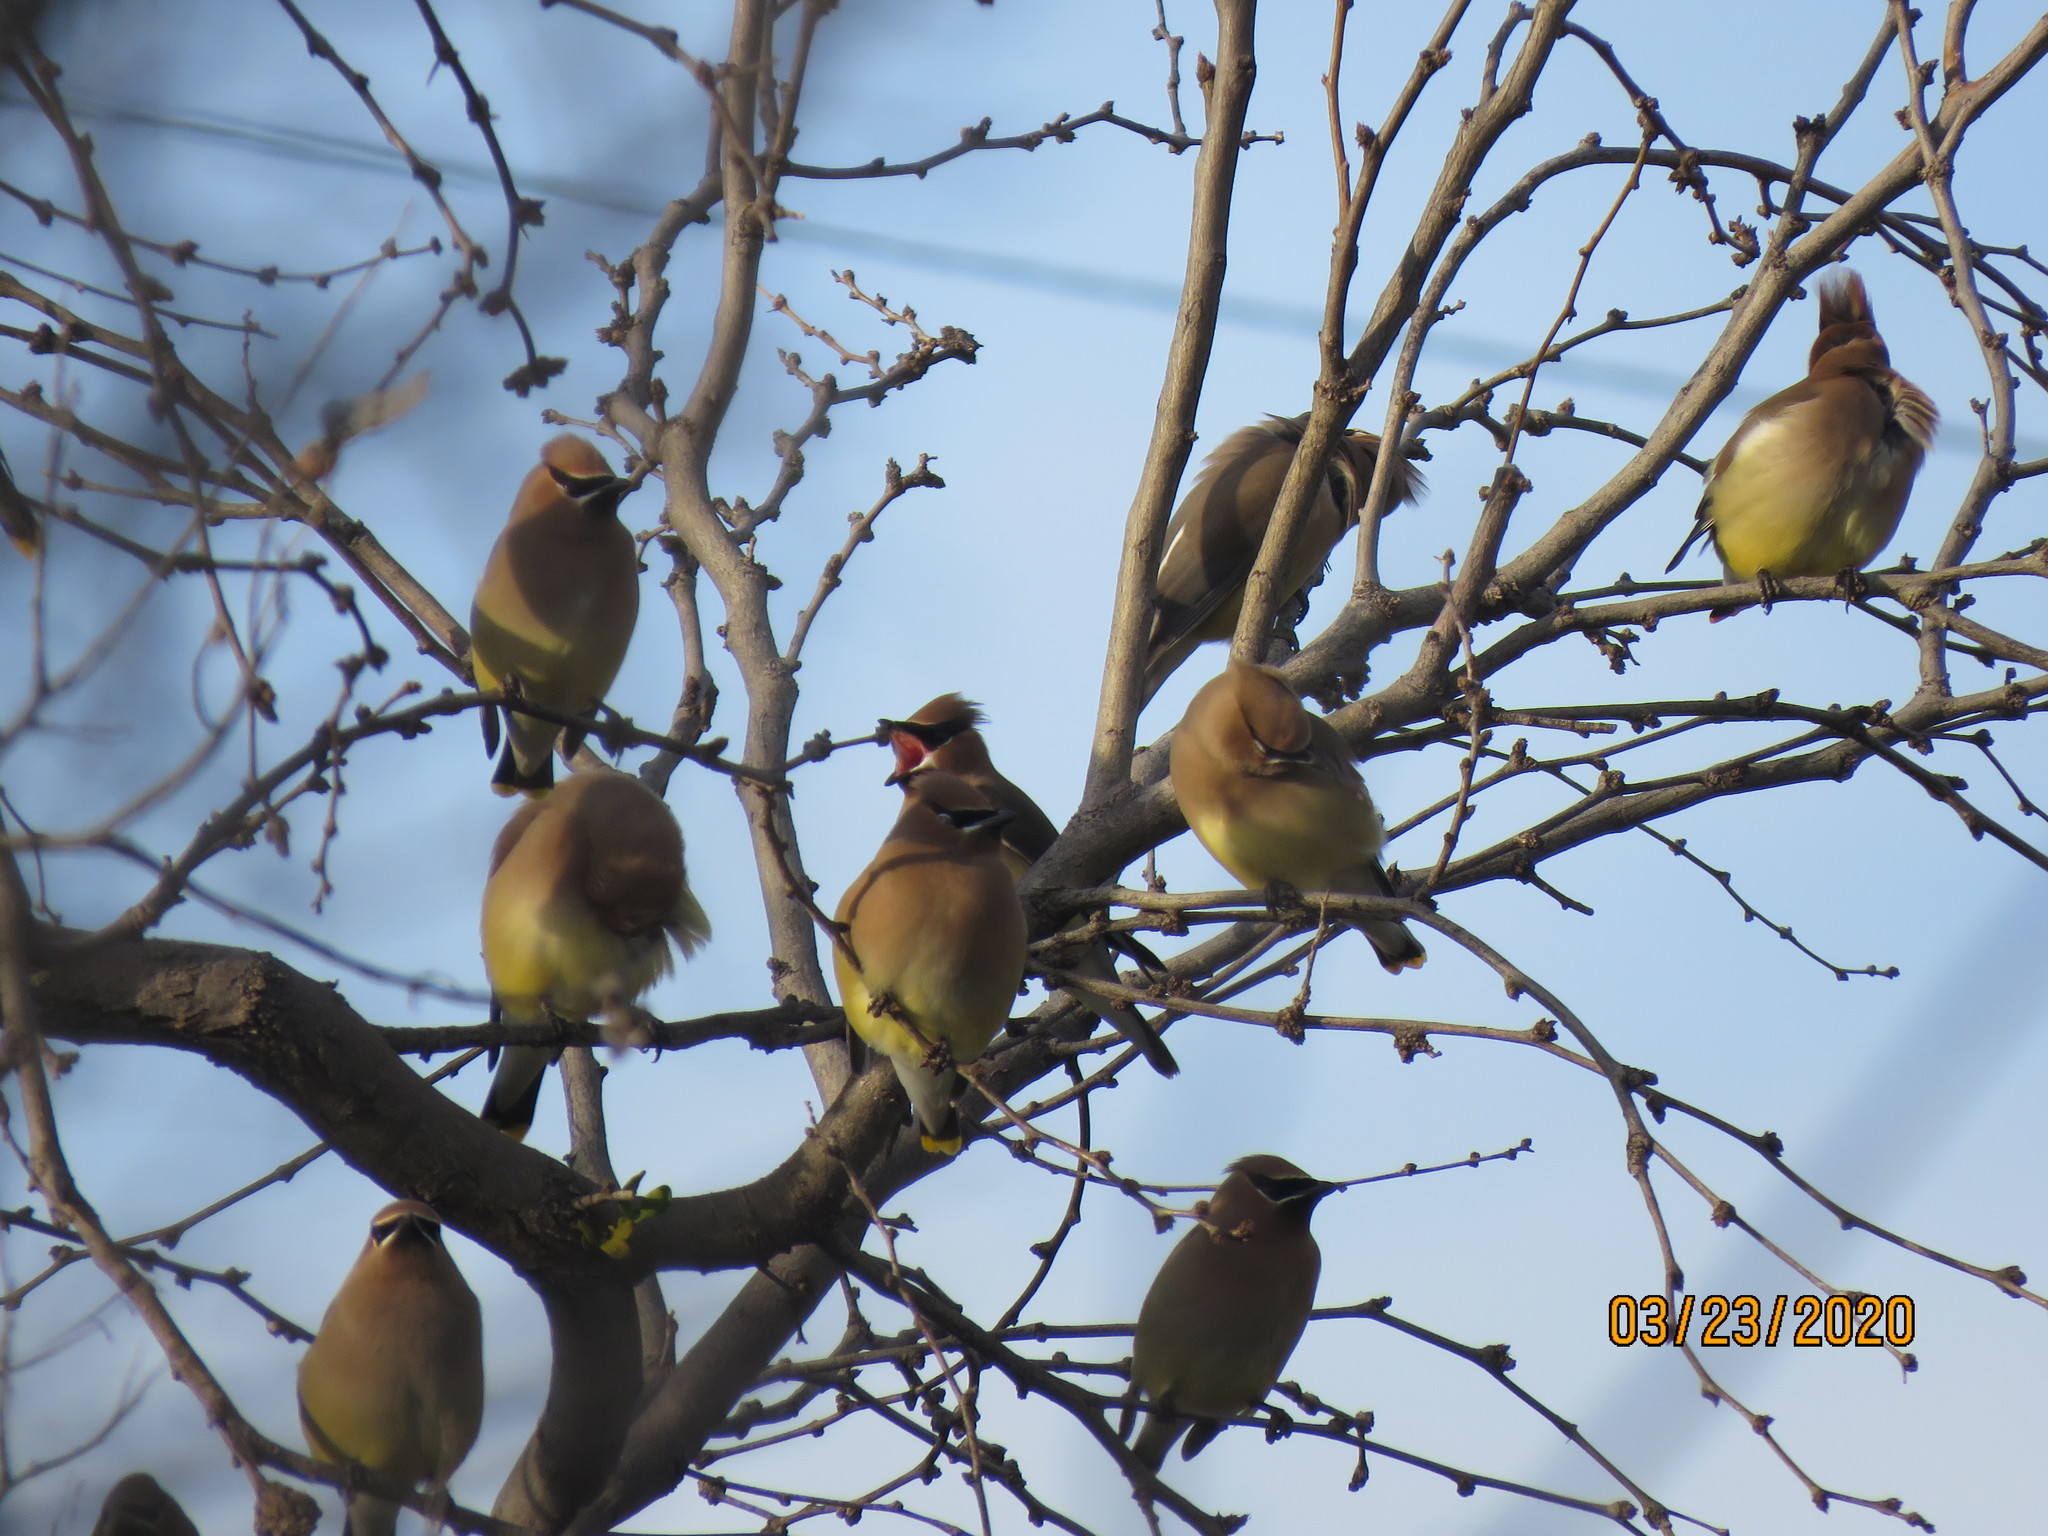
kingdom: Animalia
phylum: Chordata
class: Aves
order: Passeriformes
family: Bombycillidae
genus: Bombycilla
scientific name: Bombycilla cedrorum
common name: Cedar waxwing
